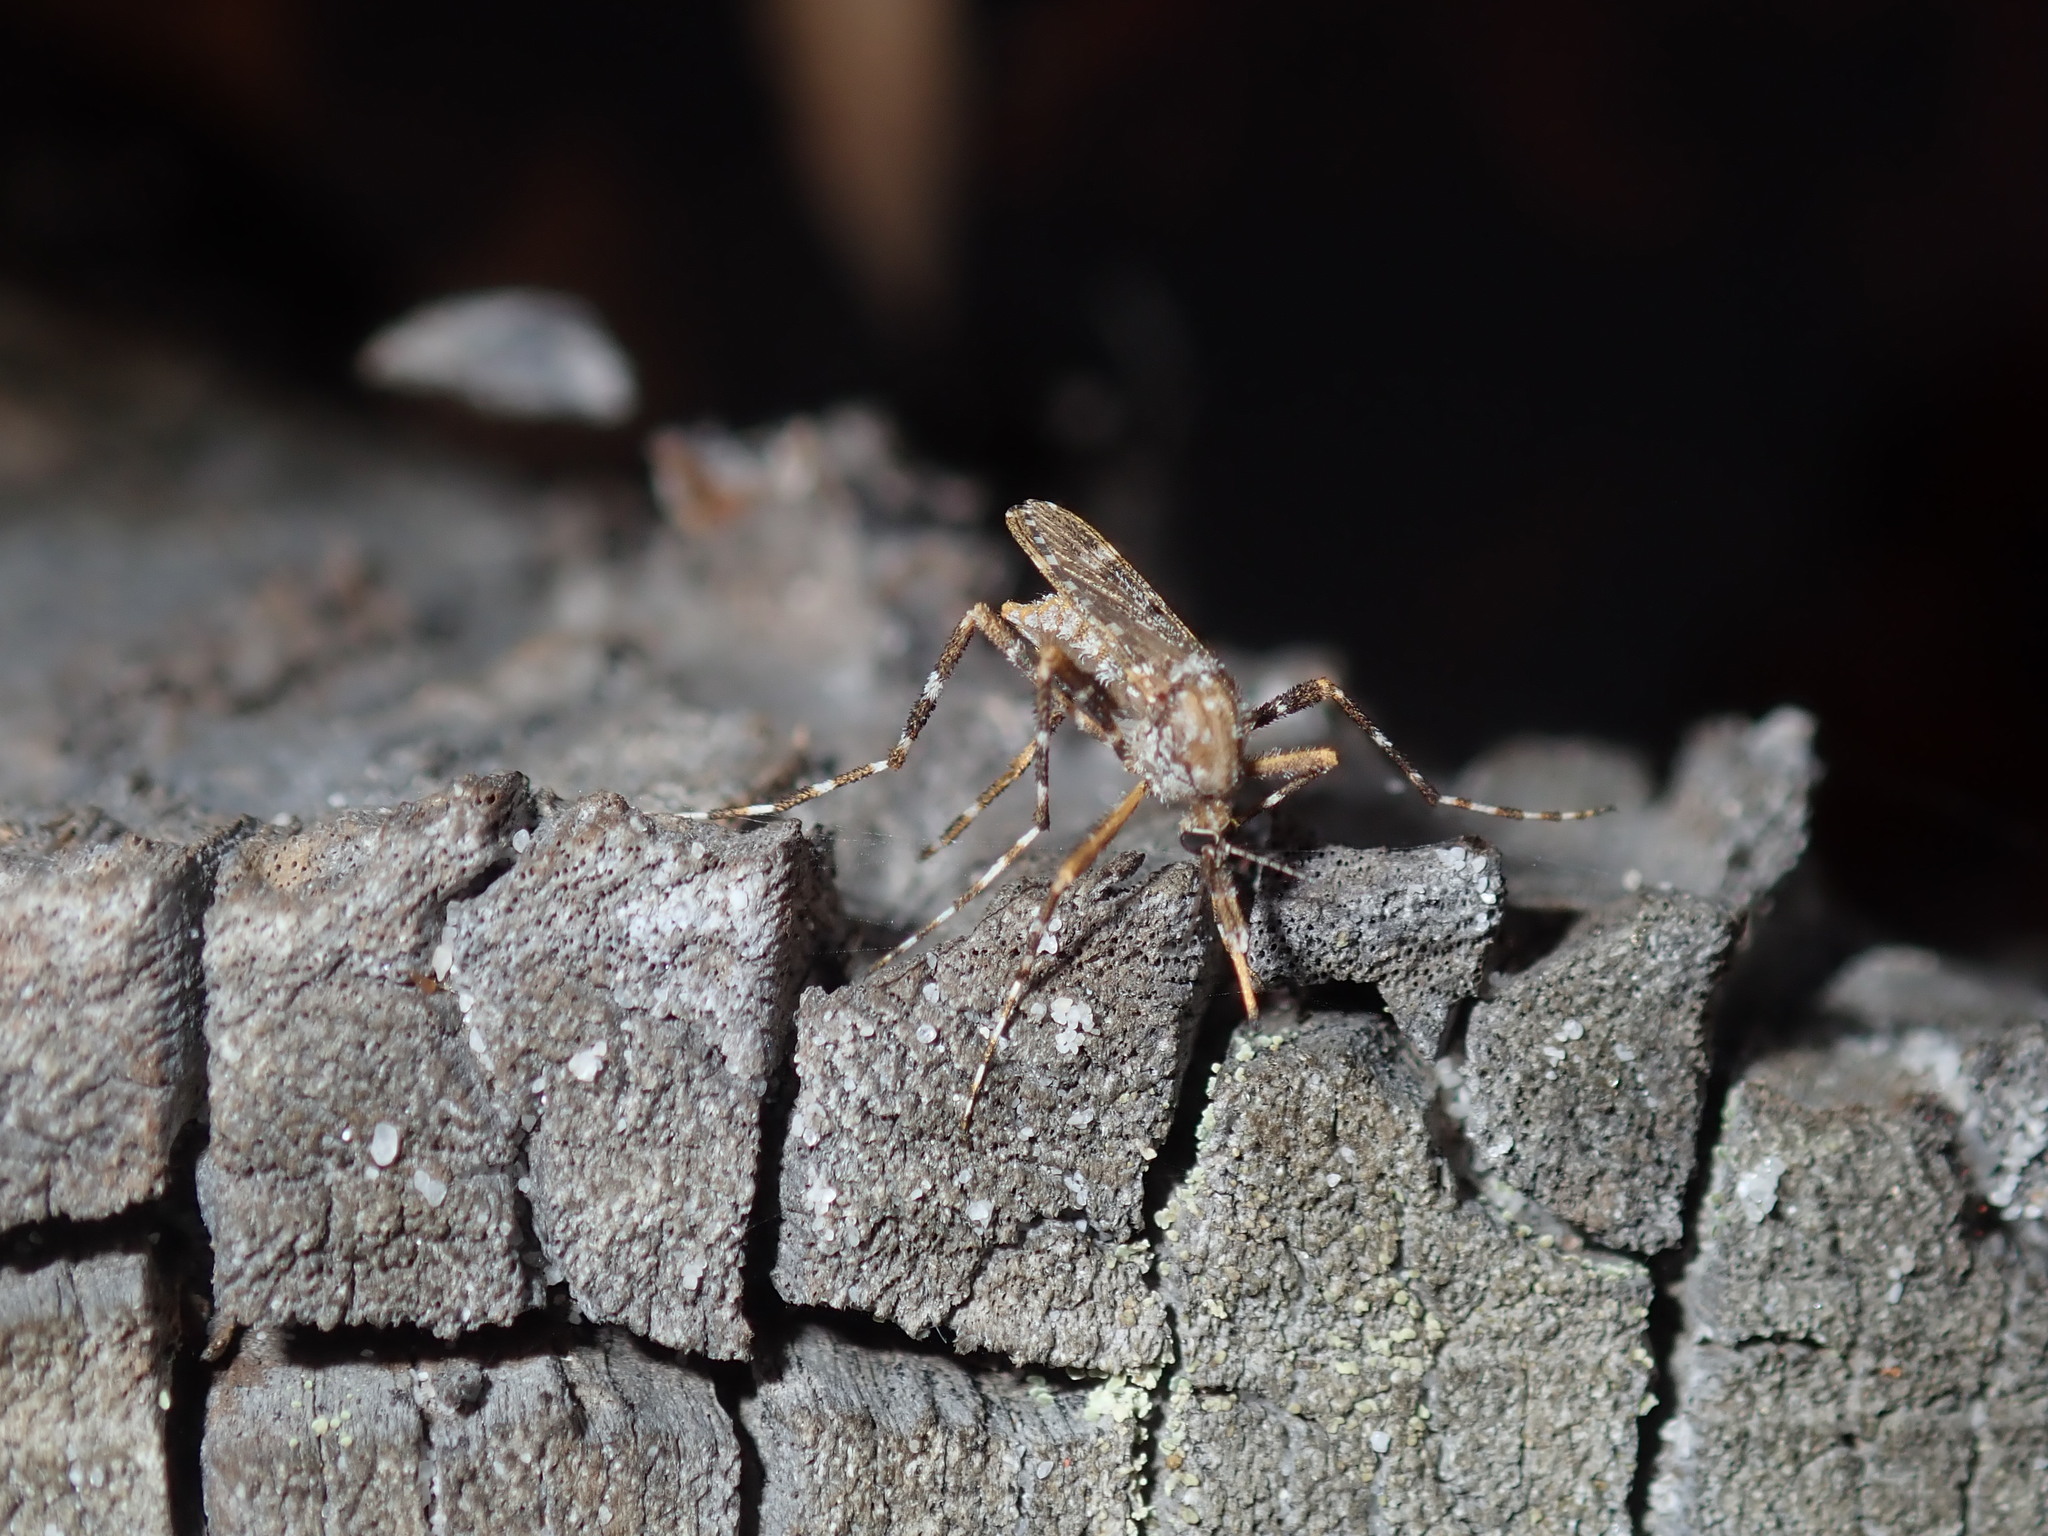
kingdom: Animalia
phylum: Arthropoda
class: Insecta
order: Diptera
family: Culicidae
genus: Aedes
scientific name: Aedes alternans
